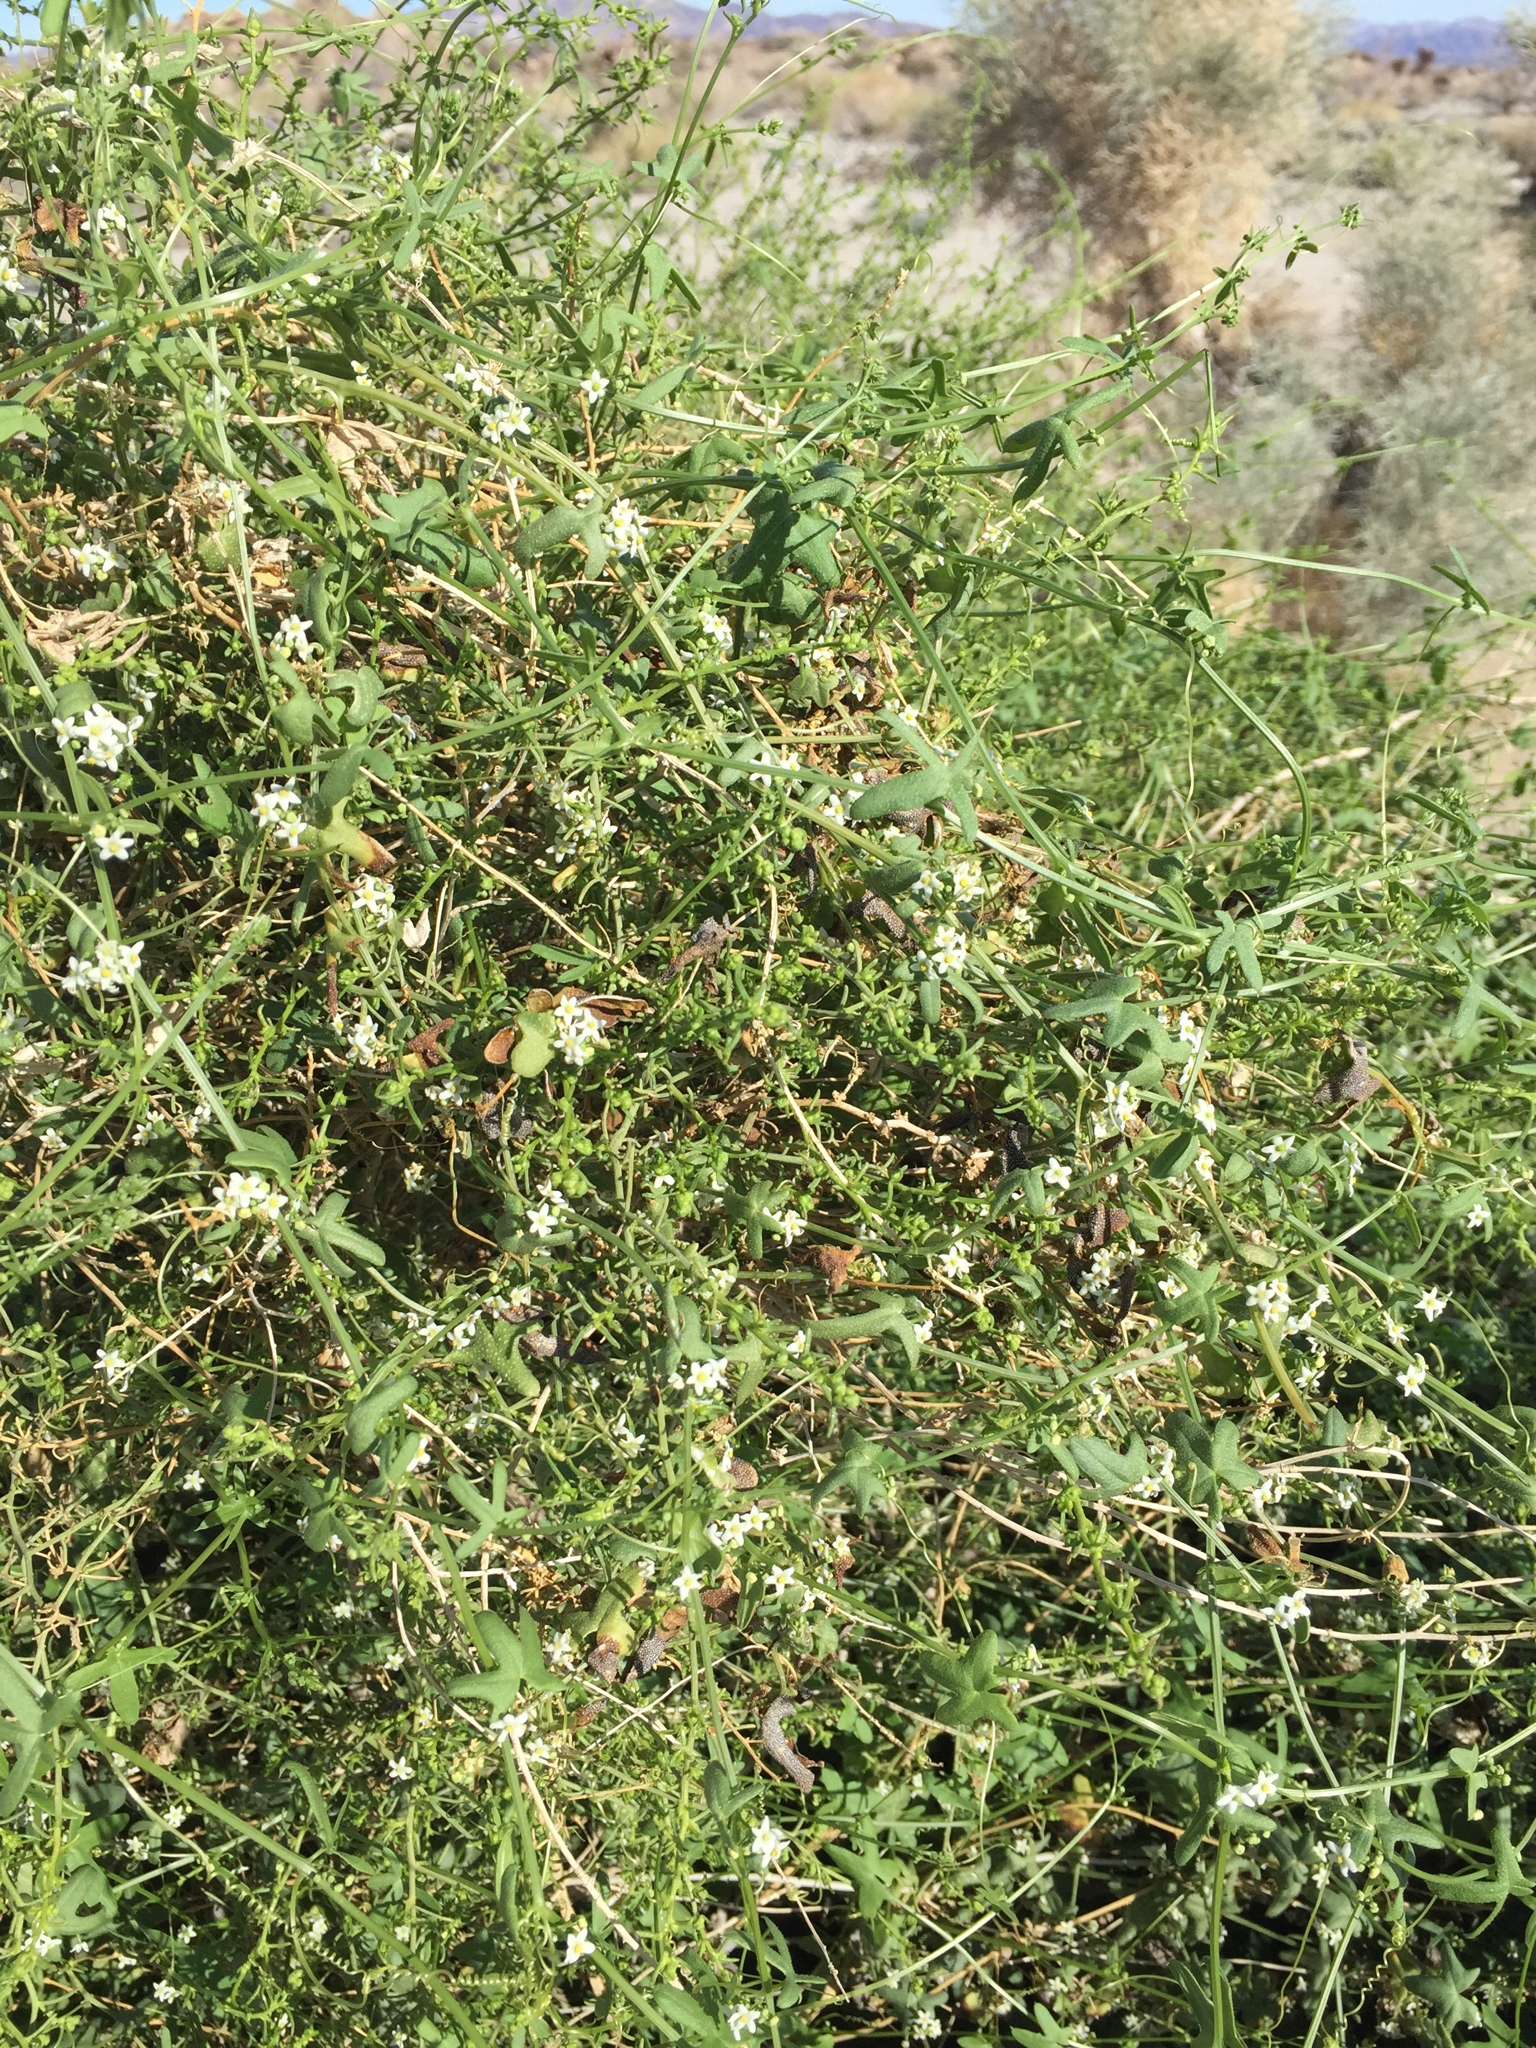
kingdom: Plantae
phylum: Tracheophyta
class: Magnoliopsida
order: Cucurbitales
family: Cucurbitaceae
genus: Echinopepon
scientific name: Echinopepon bigelovii
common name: Desert starvine
